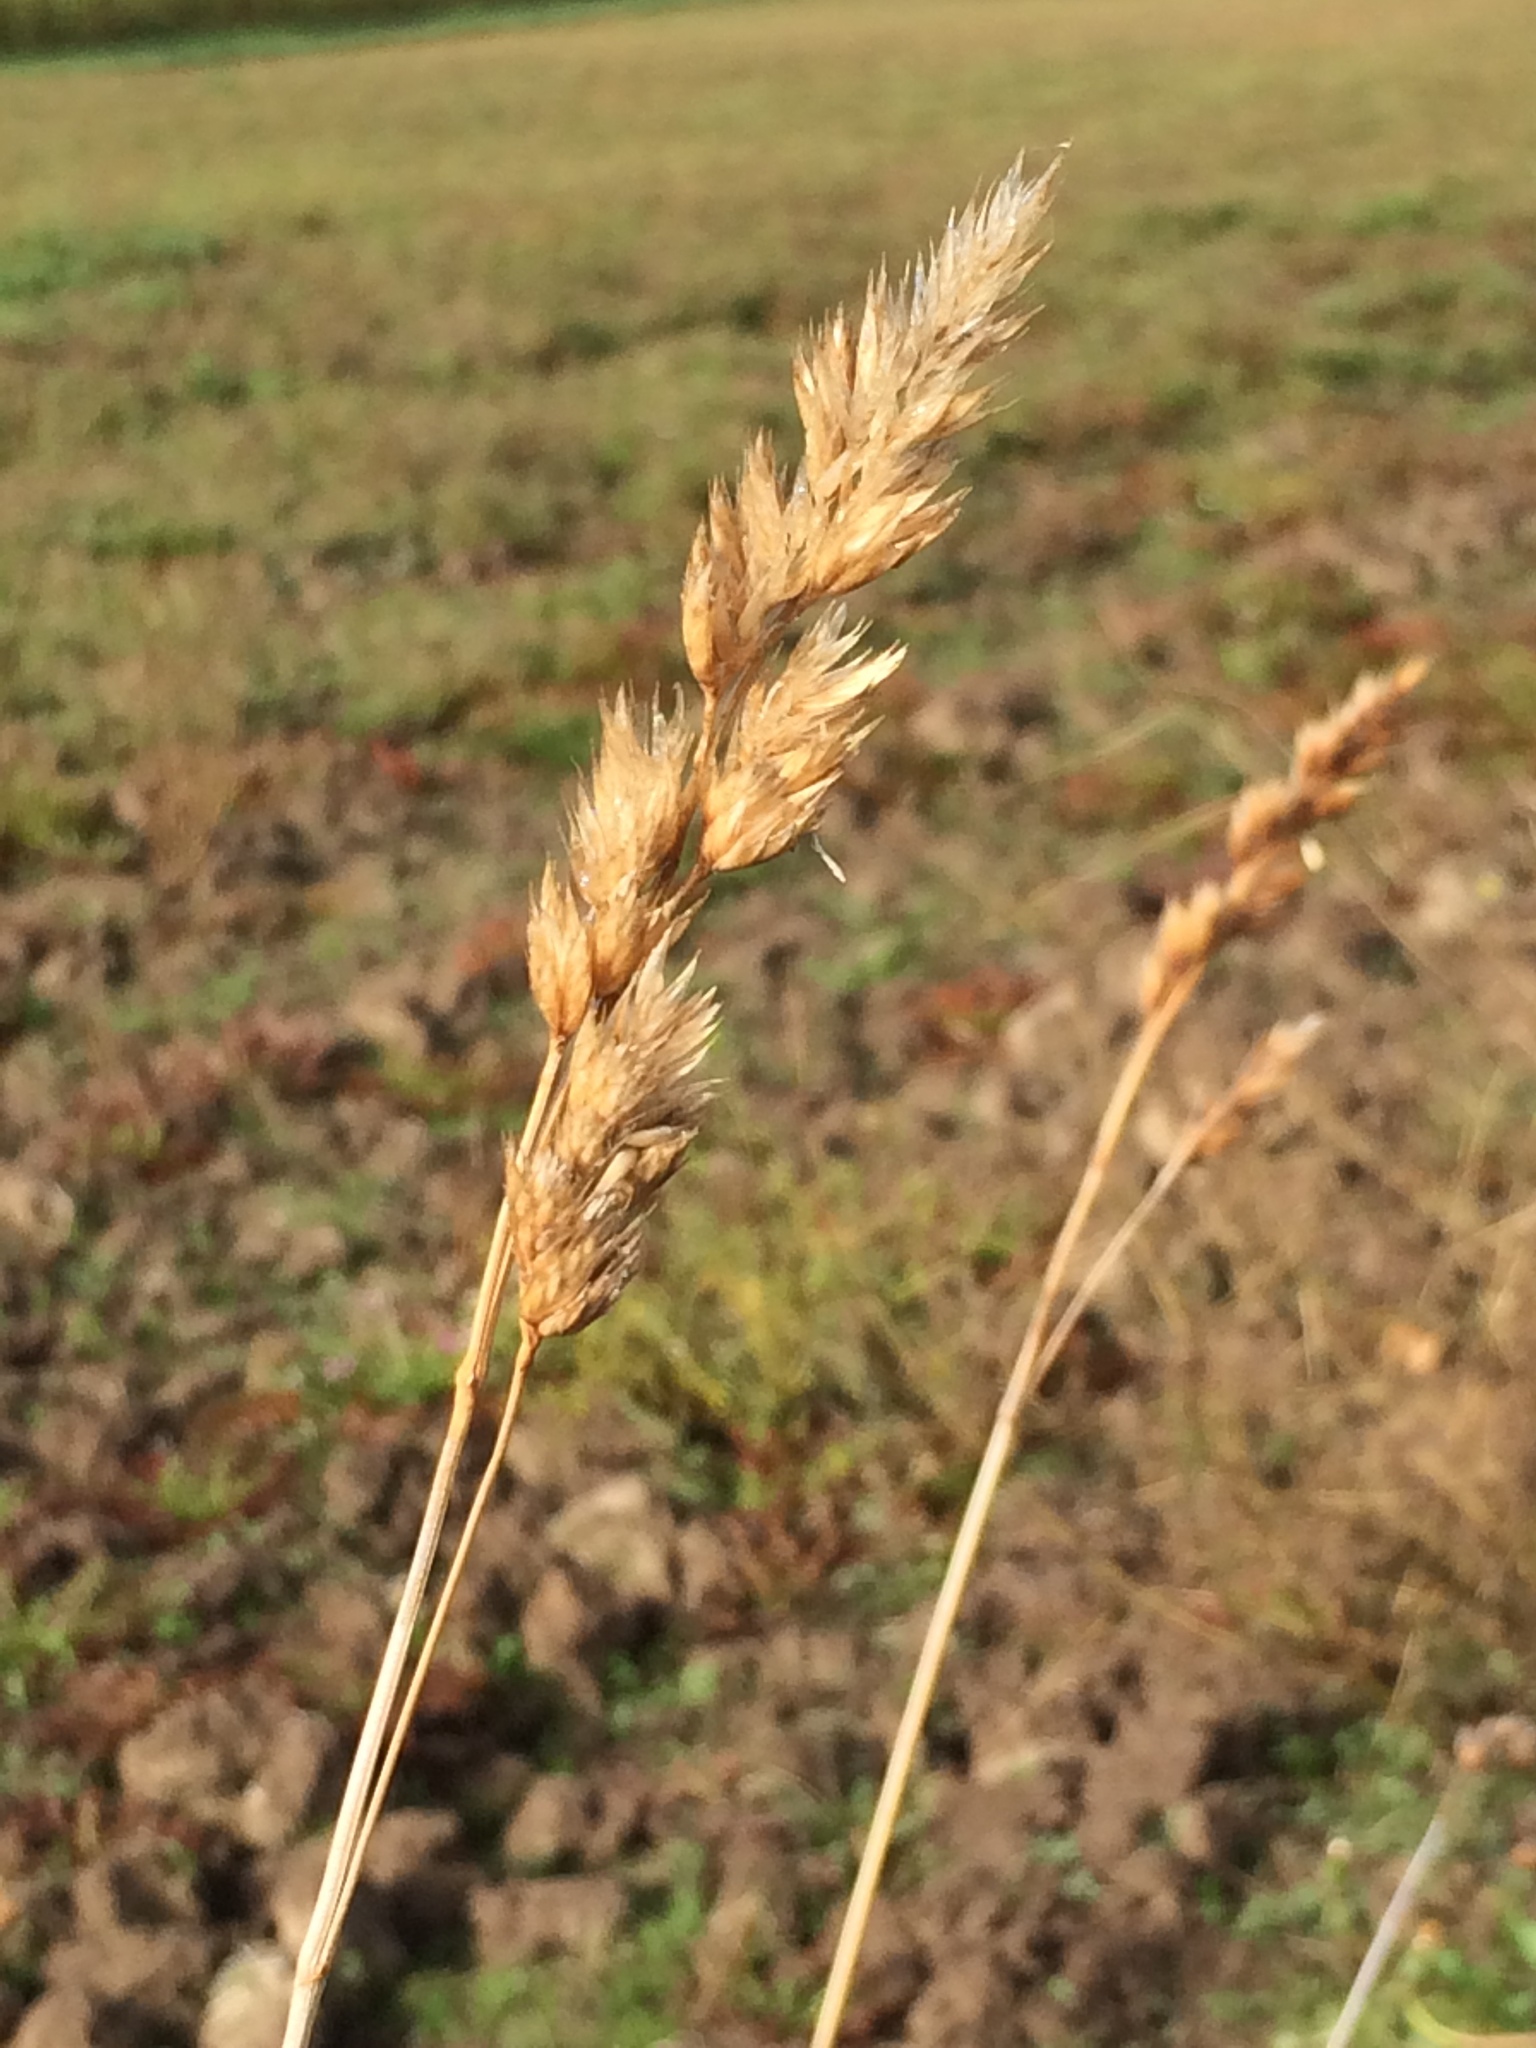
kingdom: Plantae
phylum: Tracheophyta
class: Liliopsida
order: Poales
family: Poaceae
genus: Dactylis
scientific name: Dactylis glomerata
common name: Orchardgrass
